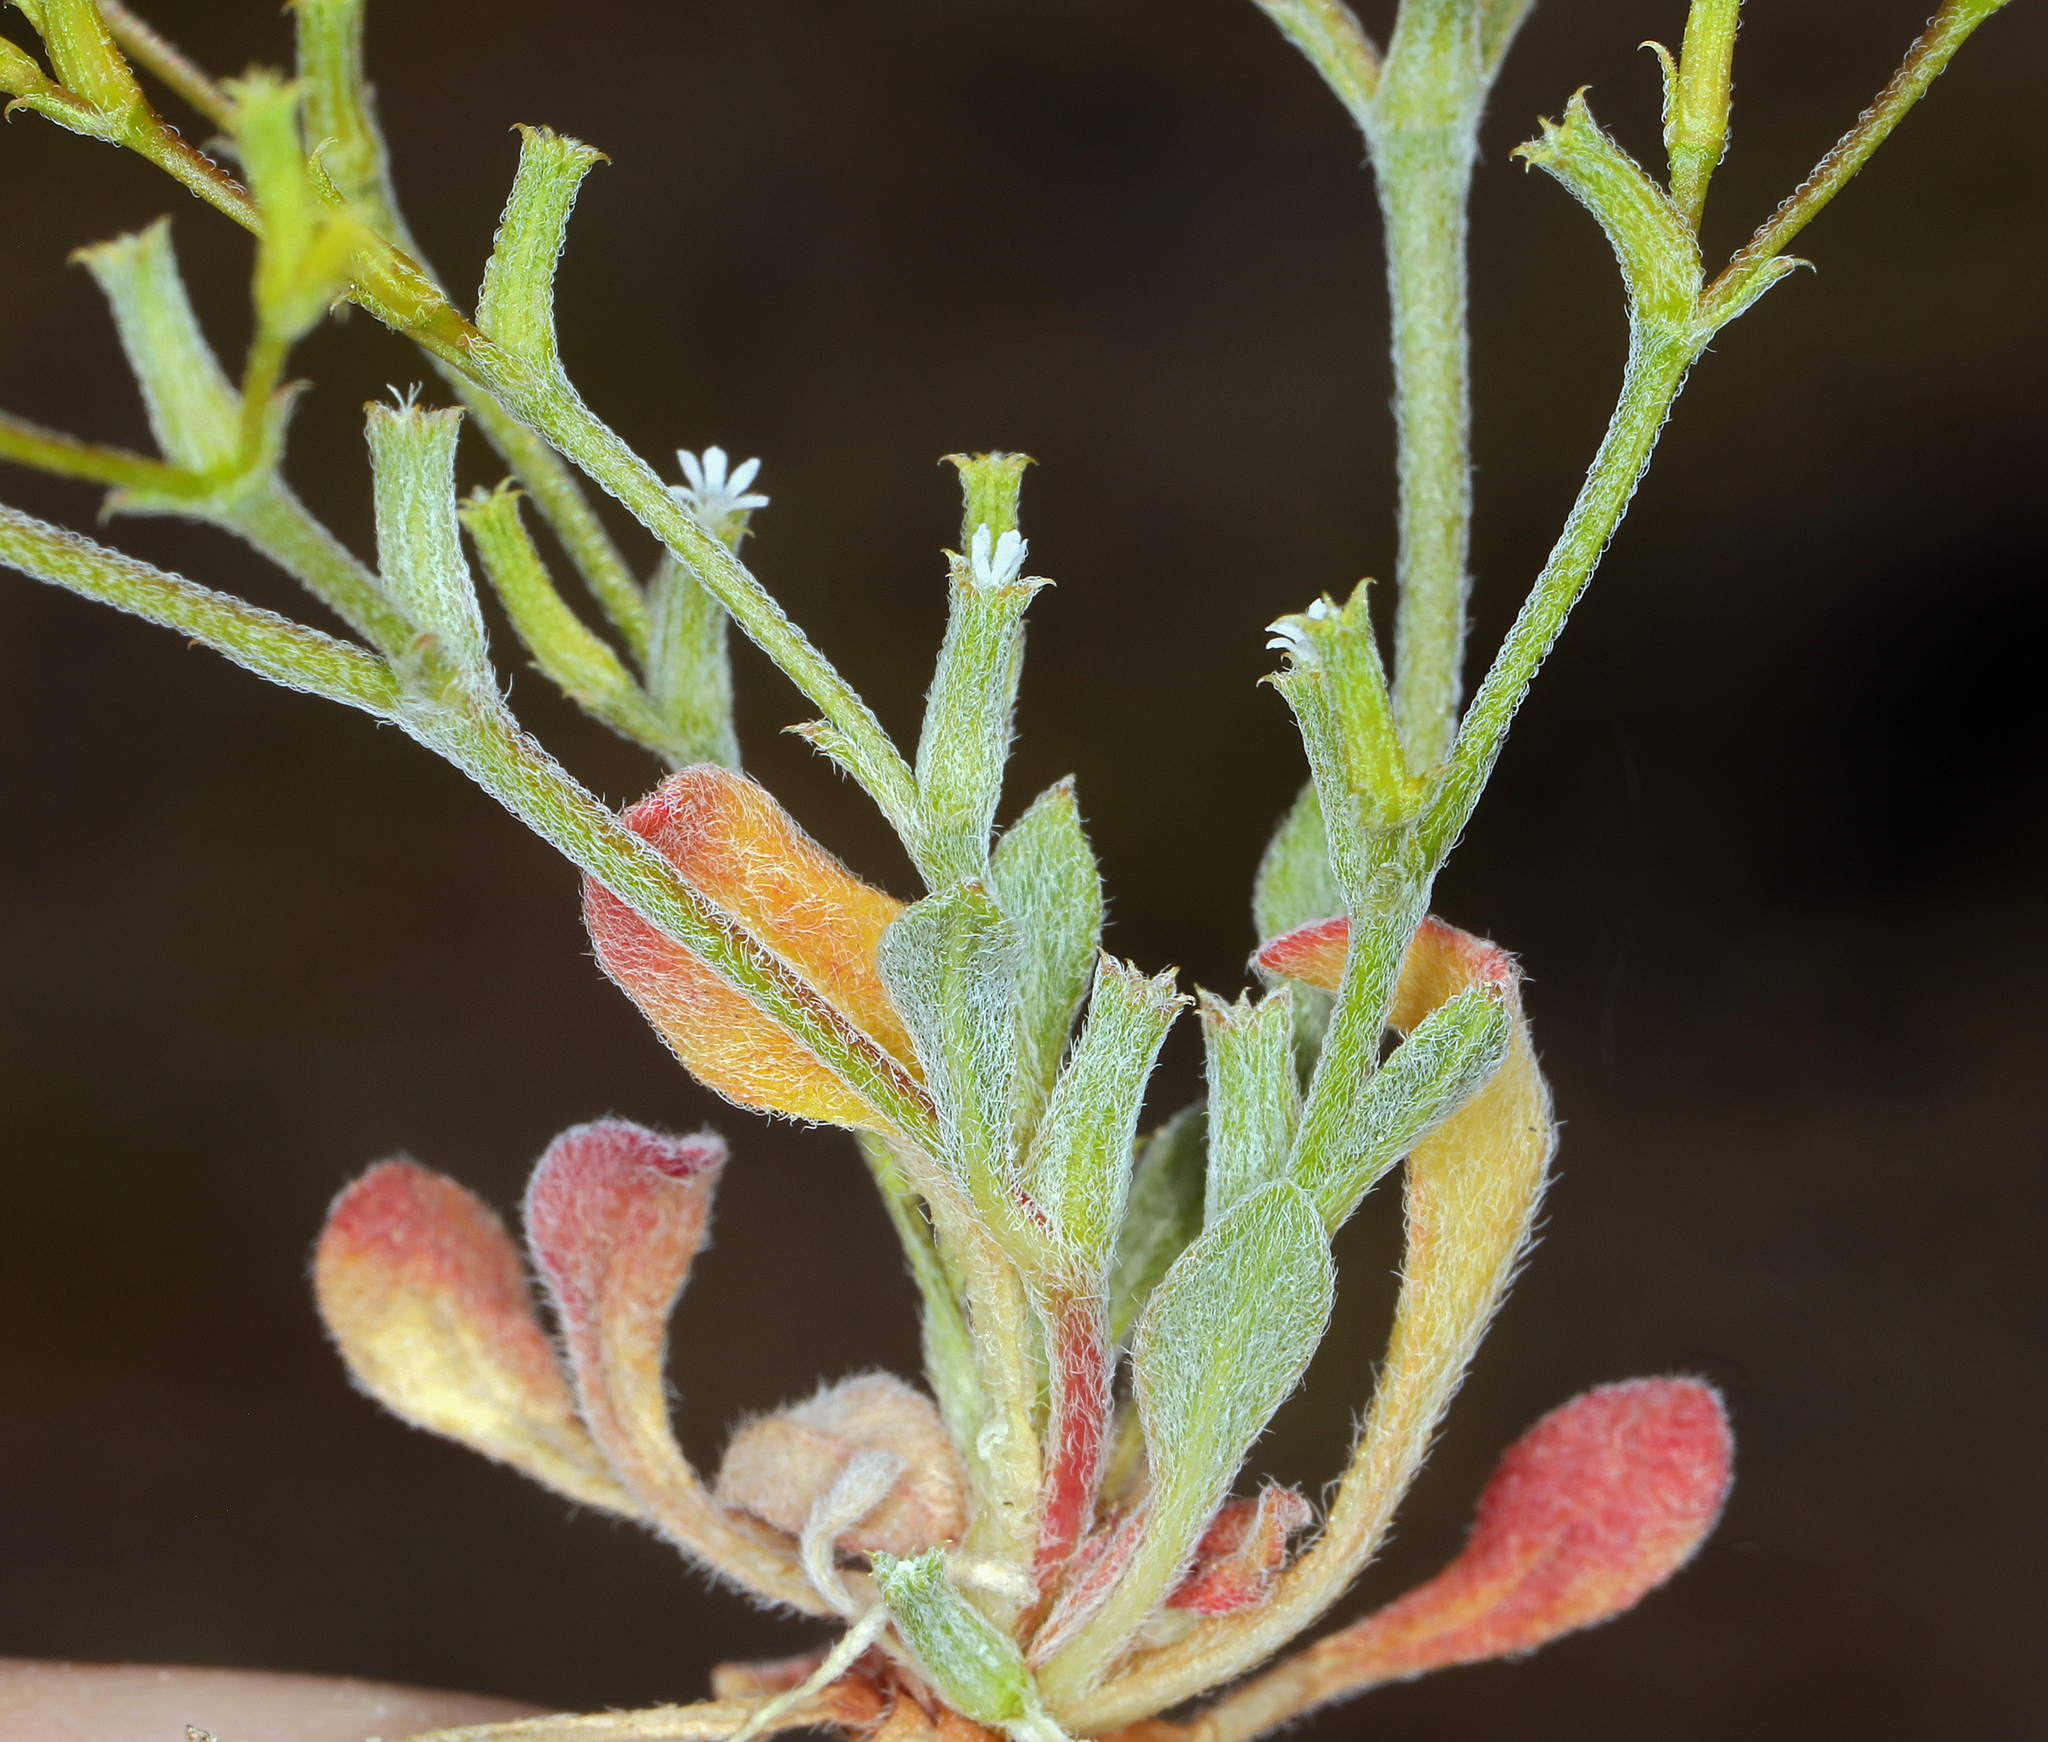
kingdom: Plantae
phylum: Tracheophyta
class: Magnoliopsida
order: Caryophyllales
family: Polygonaceae
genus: Chorizanthe
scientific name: Chorizanthe brevicornu
